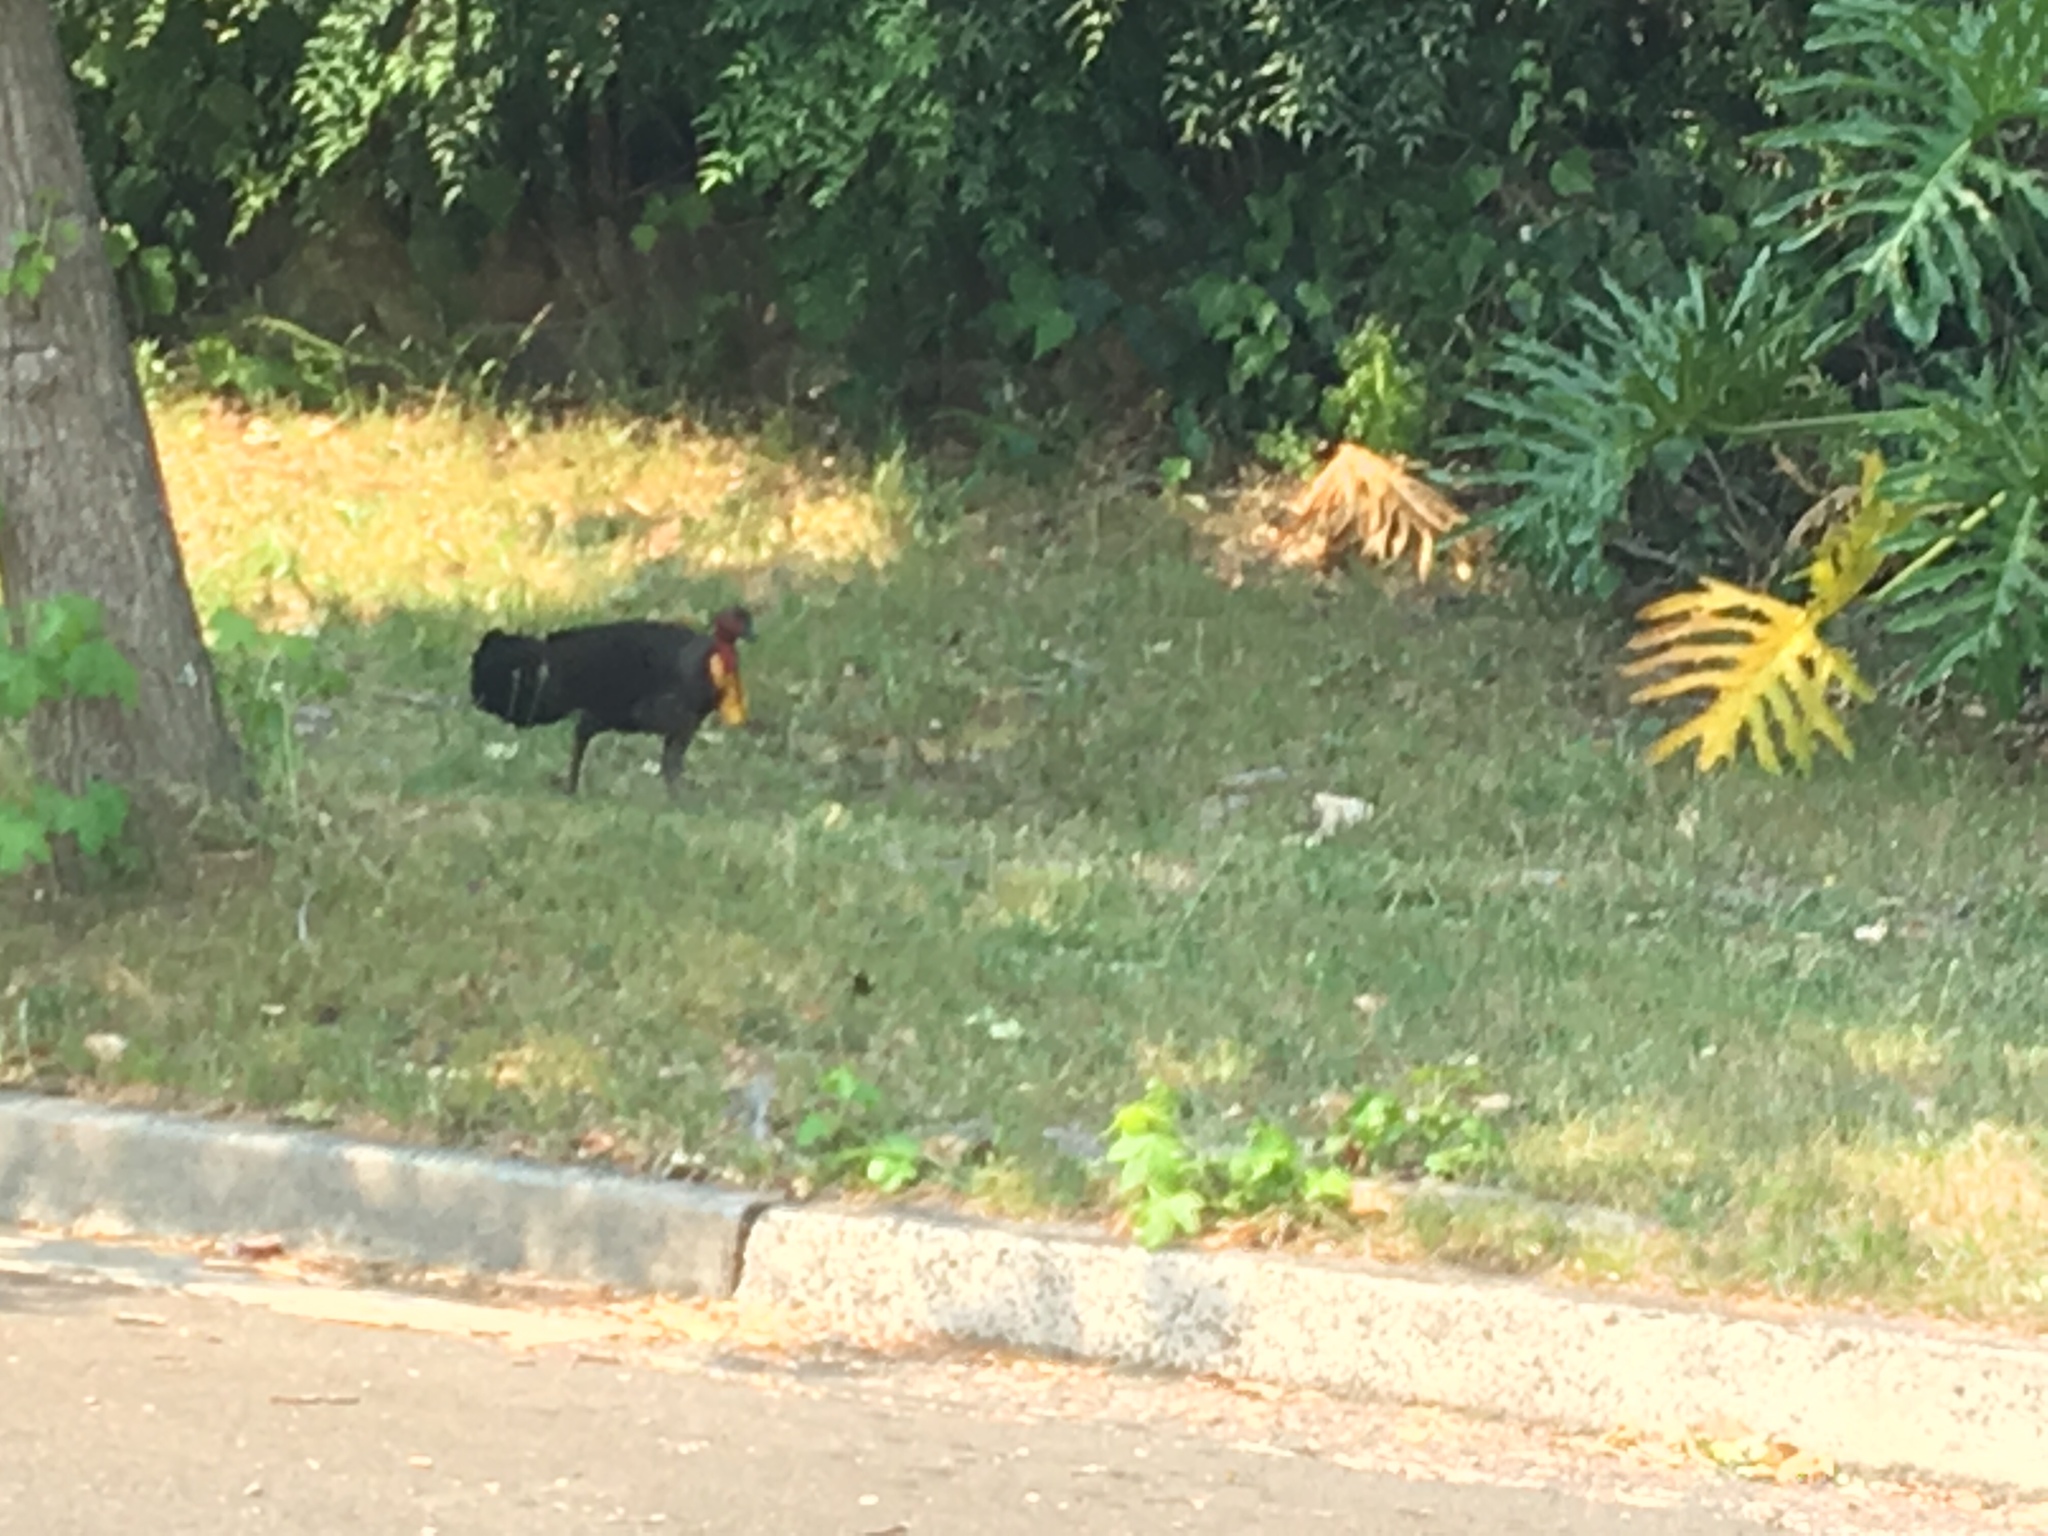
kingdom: Animalia
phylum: Chordata
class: Aves
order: Galliformes
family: Megapodiidae
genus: Alectura
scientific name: Alectura lathami
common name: Australian brushturkey
